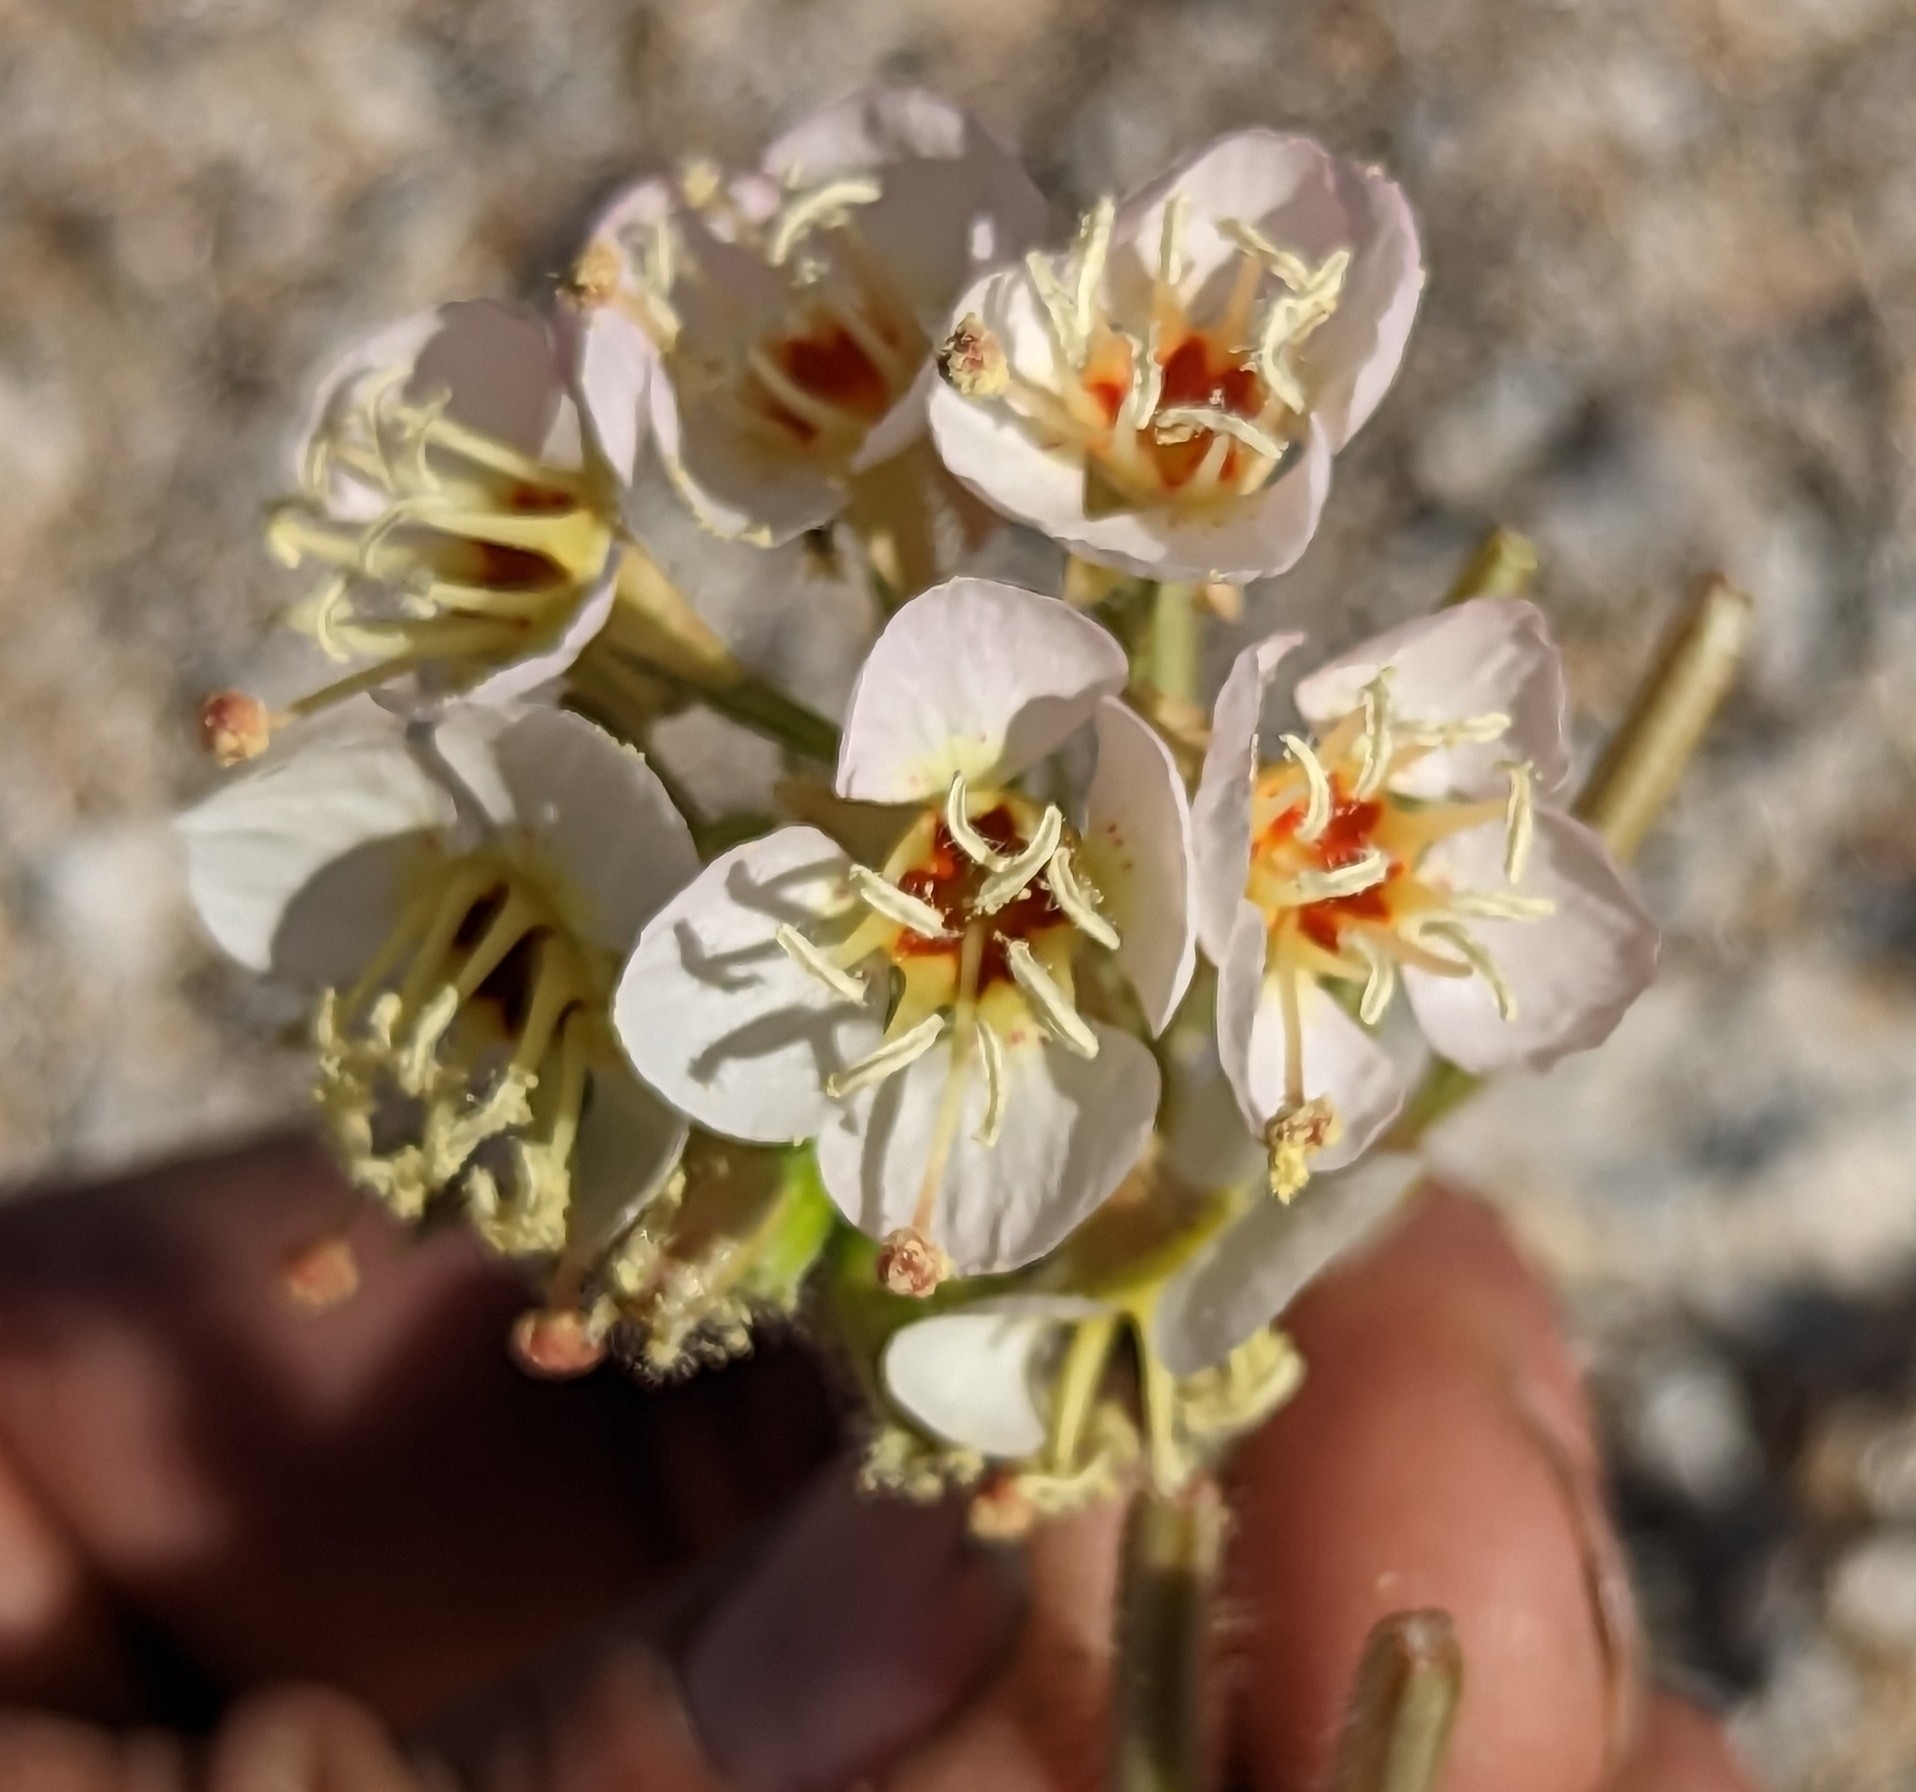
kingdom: Plantae
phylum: Tracheophyta
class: Magnoliopsida
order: Myrtales
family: Onagraceae
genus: Chylismia
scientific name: Chylismia claviformis
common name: Browneyes
